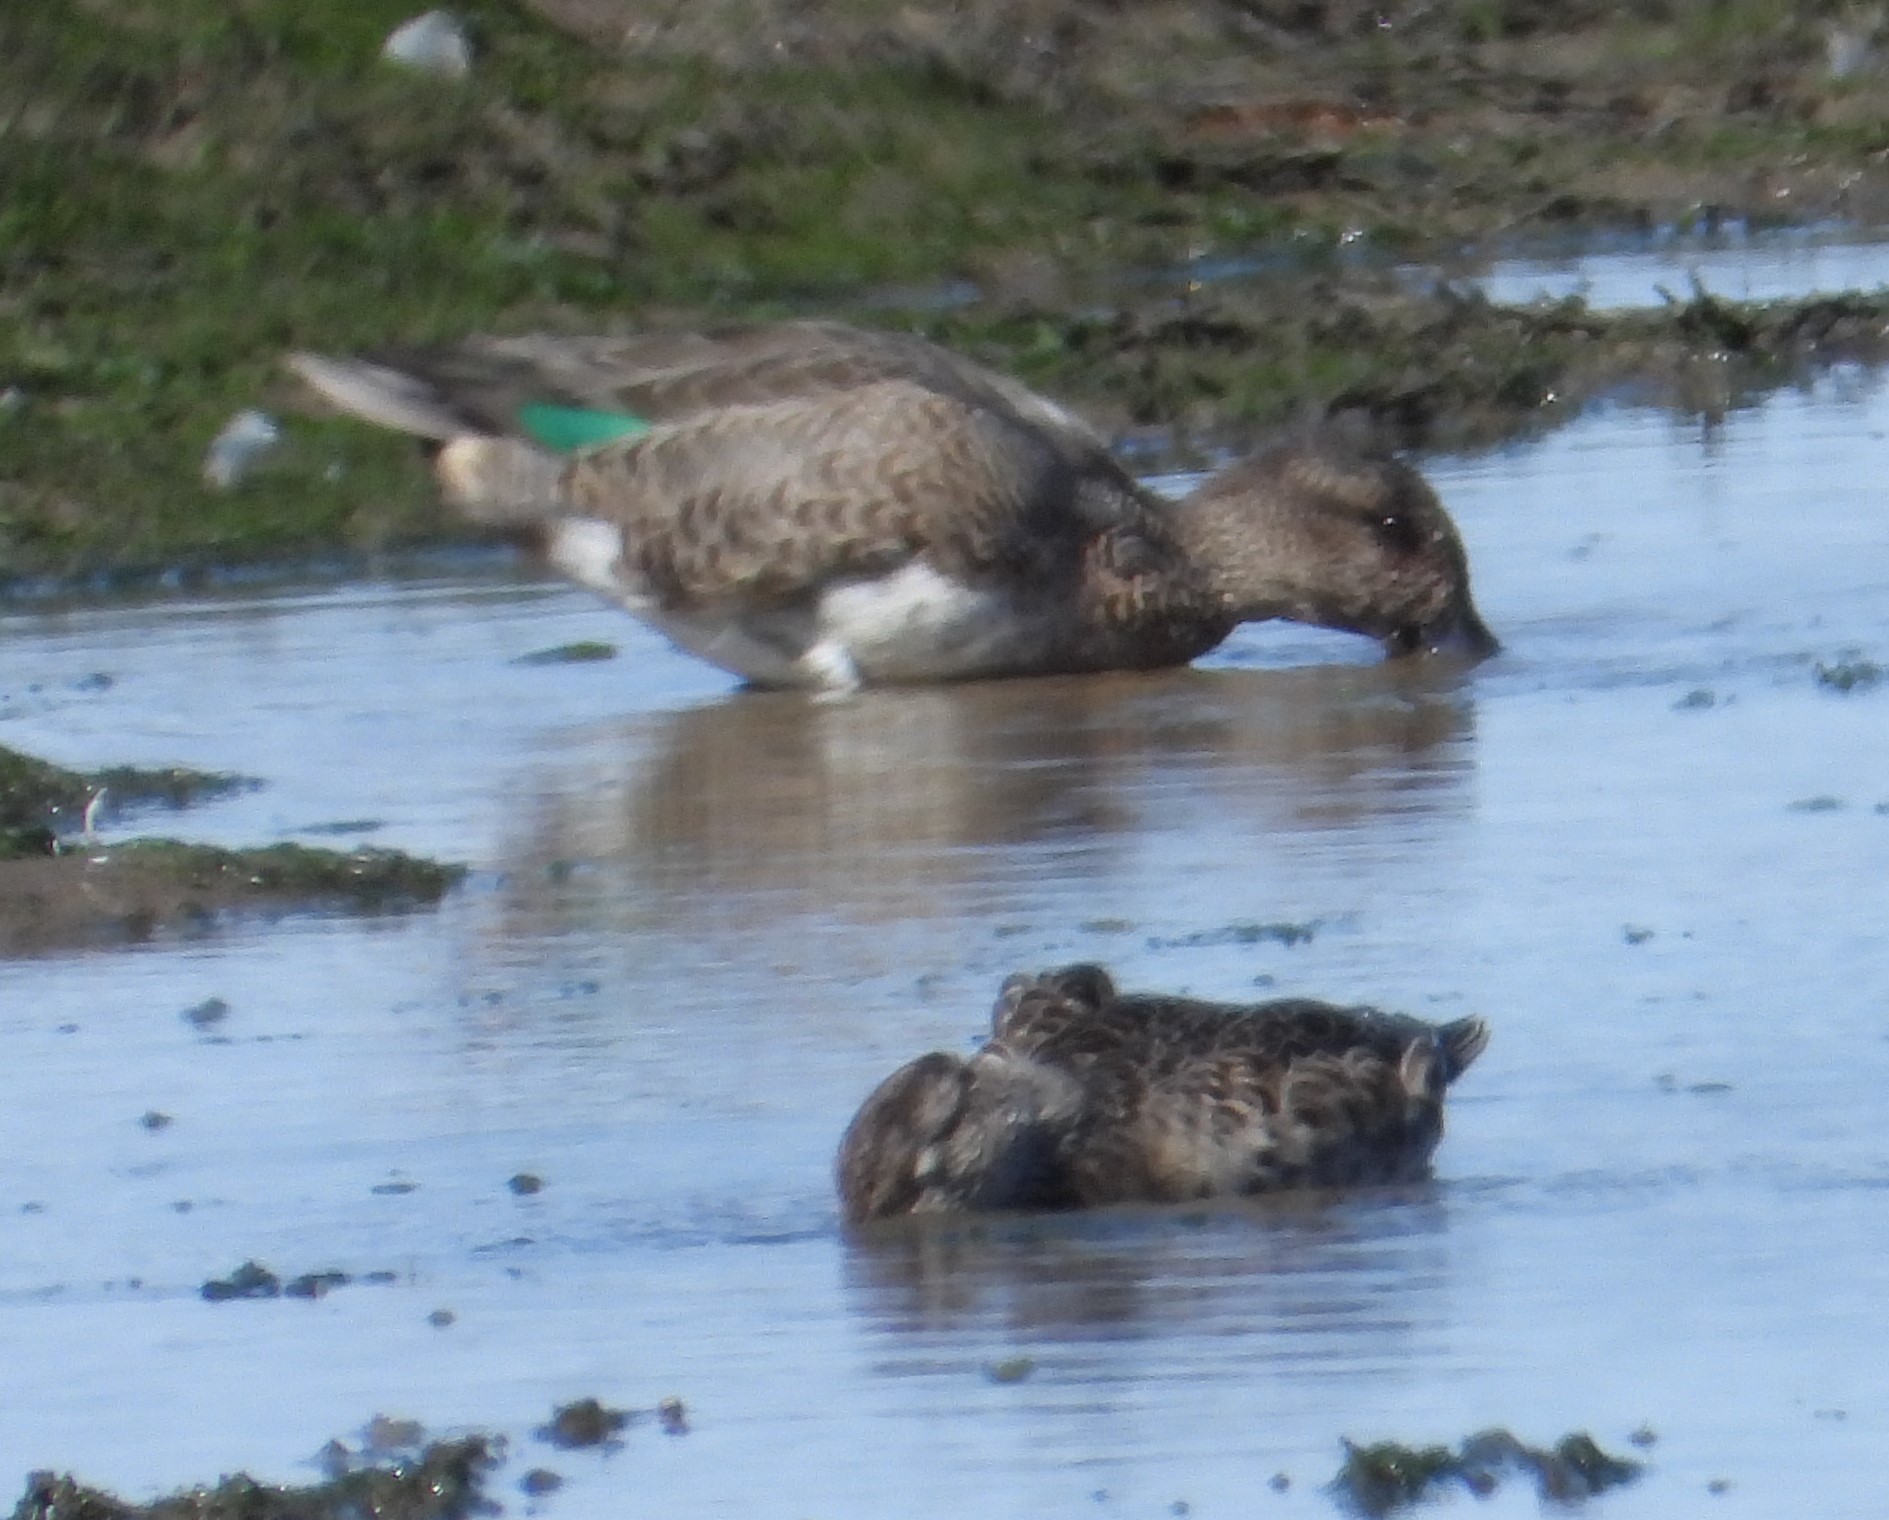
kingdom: Animalia
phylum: Chordata
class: Aves
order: Anseriformes
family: Anatidae
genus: Anas
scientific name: Anas crecca
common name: Eurasian teal
